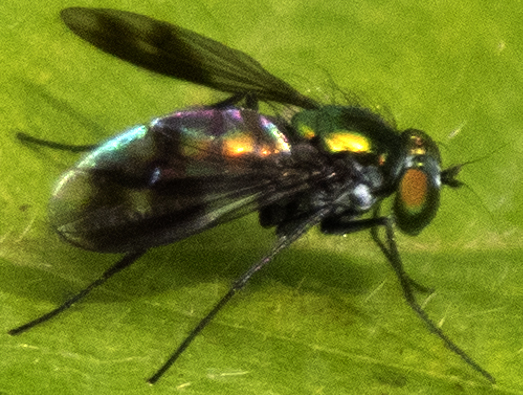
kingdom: Animalia
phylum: Arthropoda
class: Insecta
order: Diptera
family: Dolichopodidae
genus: Condylostylus
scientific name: Condylostylus patibulatus
